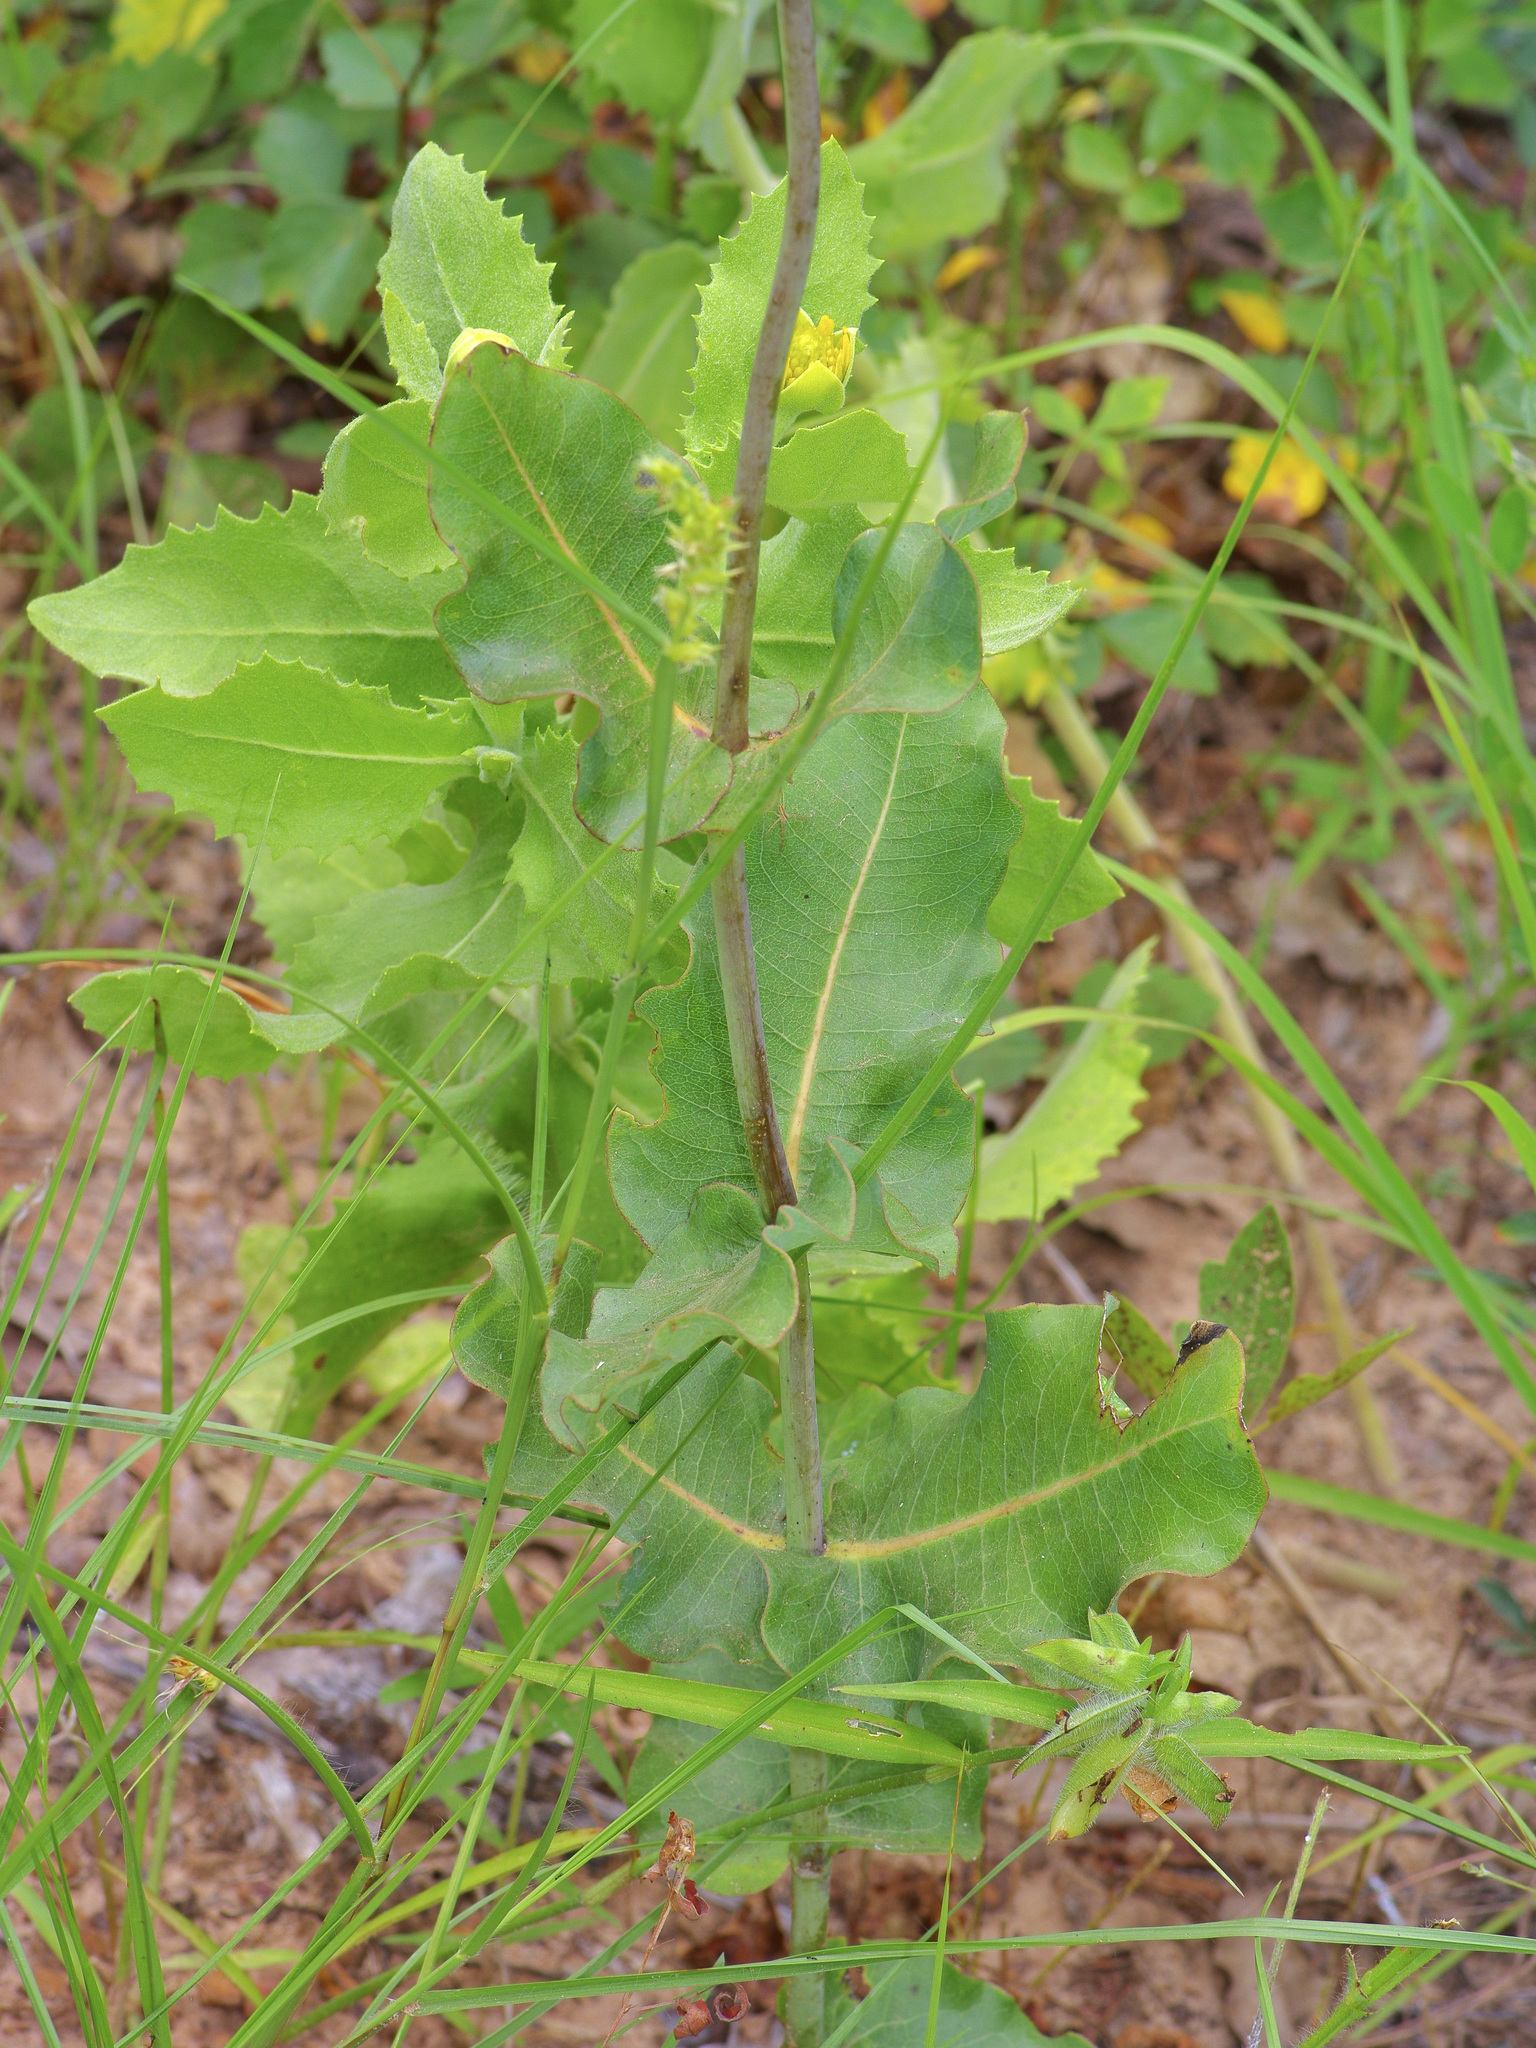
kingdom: Plantae
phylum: Tracheophyta
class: Magnoliopsida
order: Gentianales
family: Apocynaceae
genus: Asclepias
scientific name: Asclepias amplexicaulis
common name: Blunt-leaf milkweed
